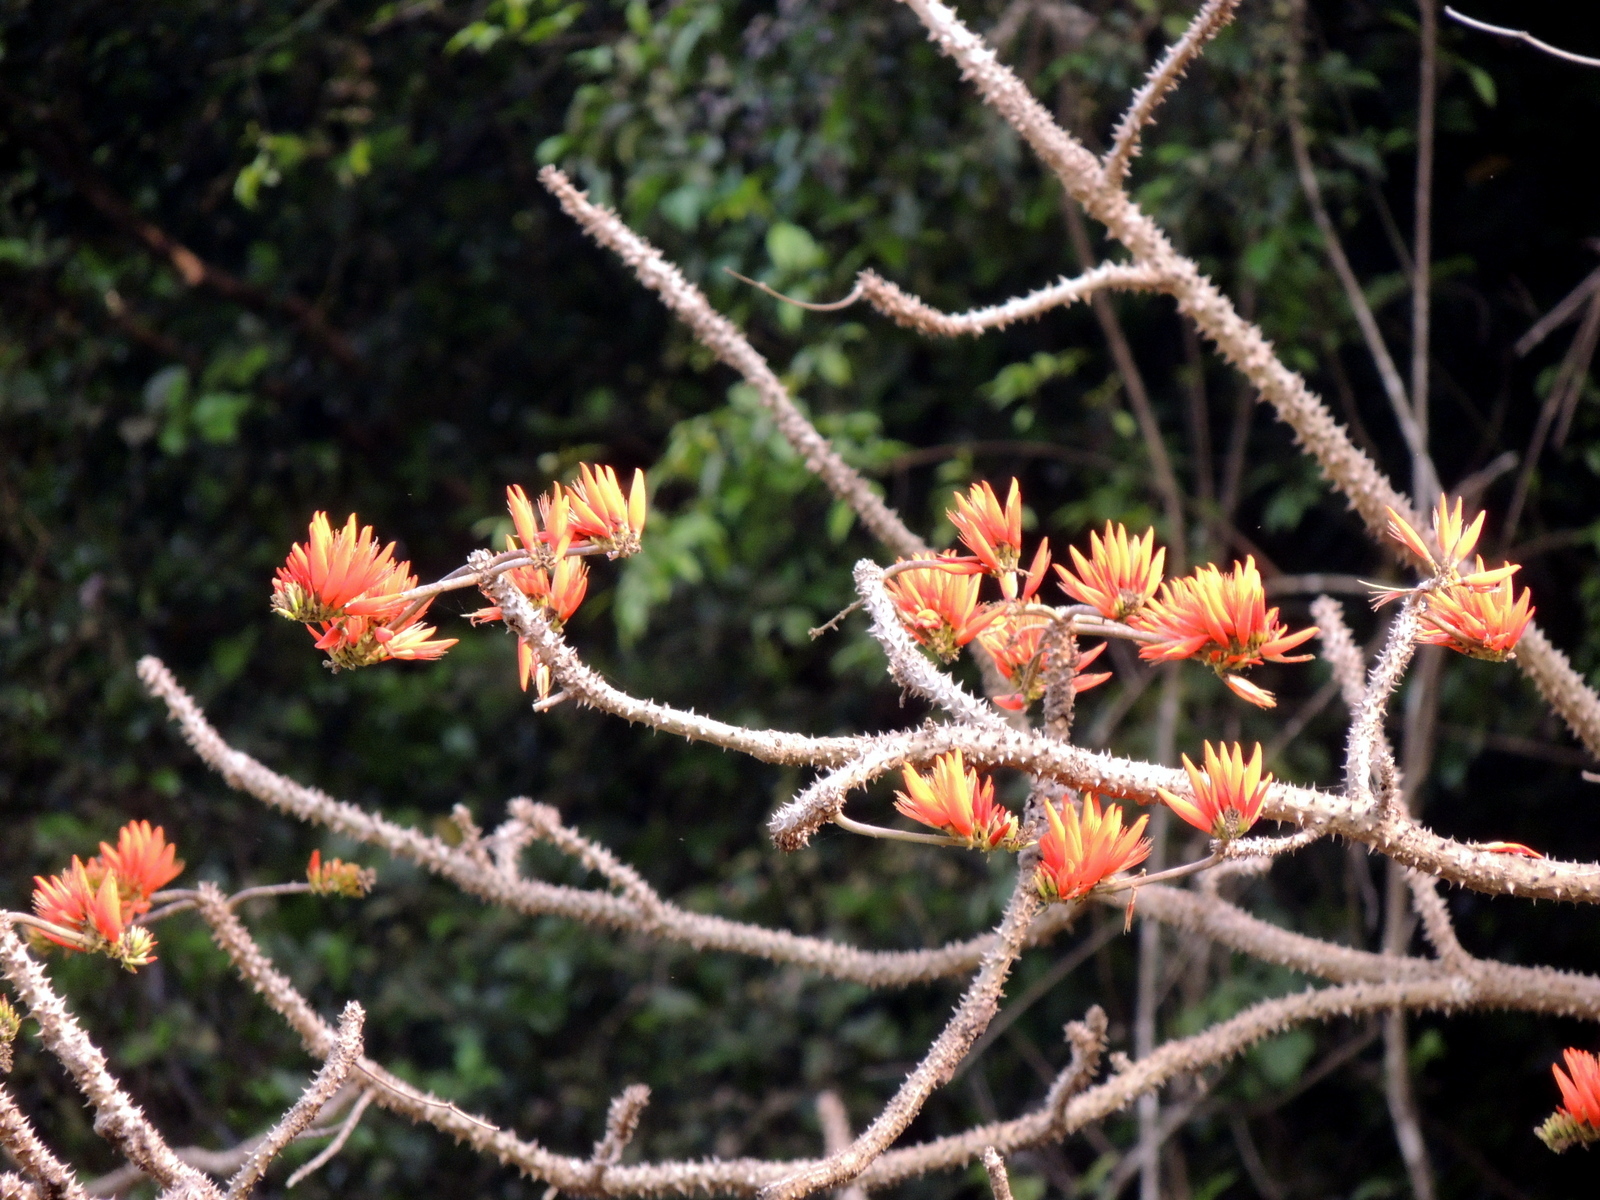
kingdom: Plantae
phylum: Tracheophyta
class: Magnoliopsida
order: Fabales
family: Fabaceae
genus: Erythrina
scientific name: Erythrina variegata
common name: Indian coral tree
